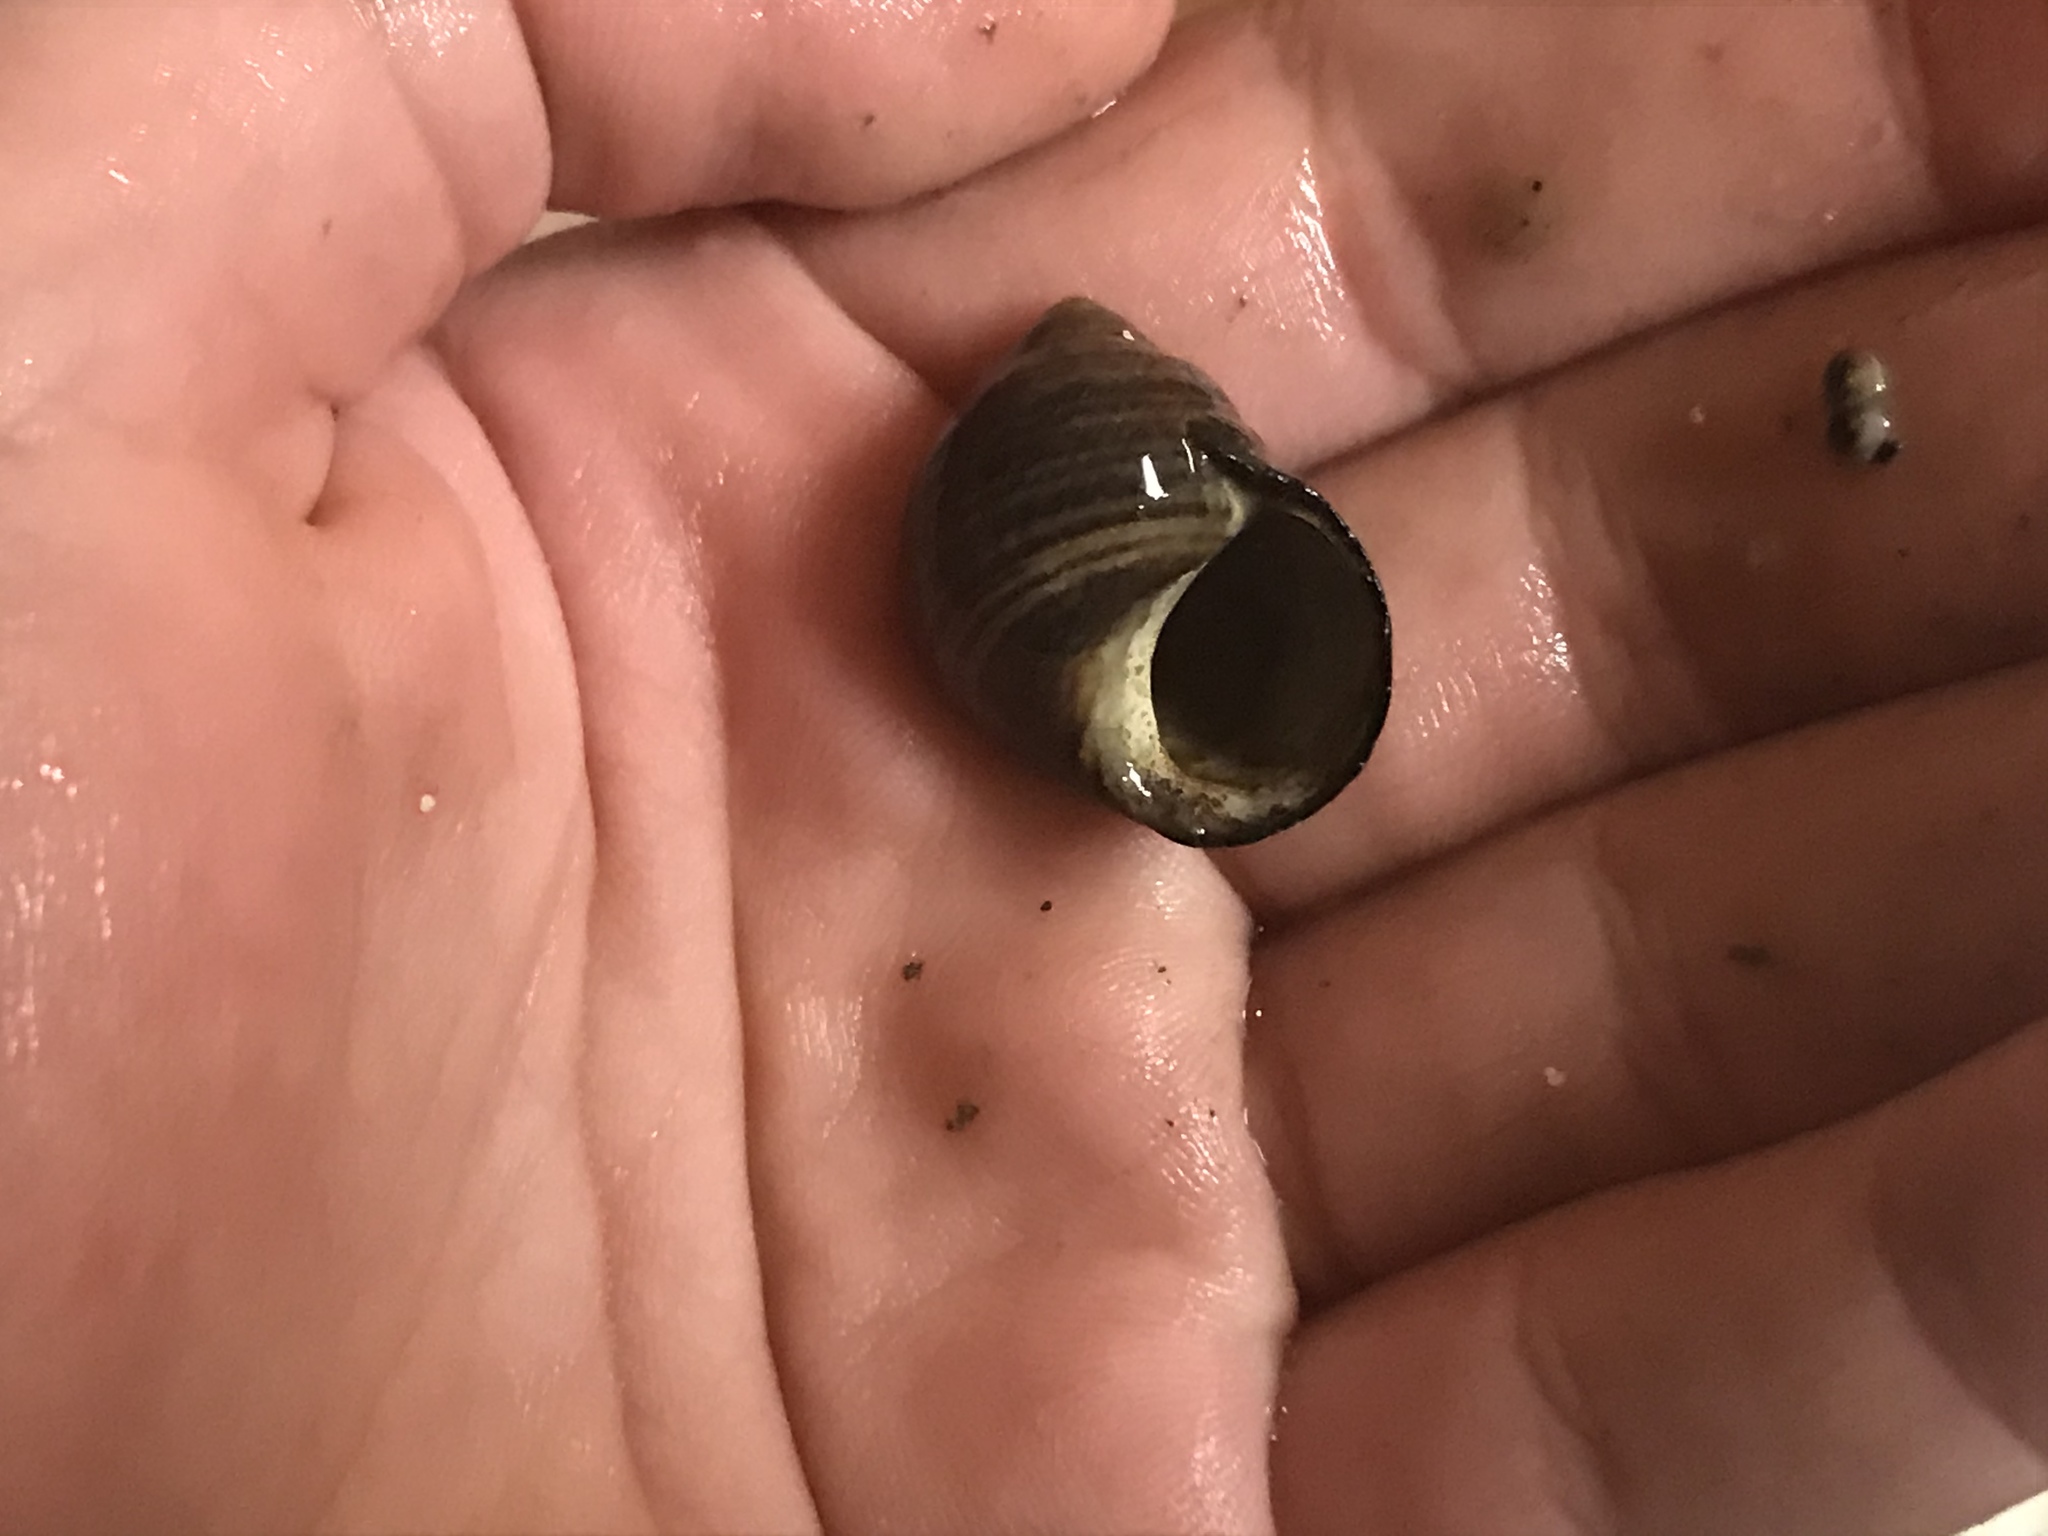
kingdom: Animalia
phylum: Mollusca
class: Gastropoda
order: Littorinimorpha
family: Littorinidae
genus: Littorina
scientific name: Littorina littorea
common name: Common periwinkle
